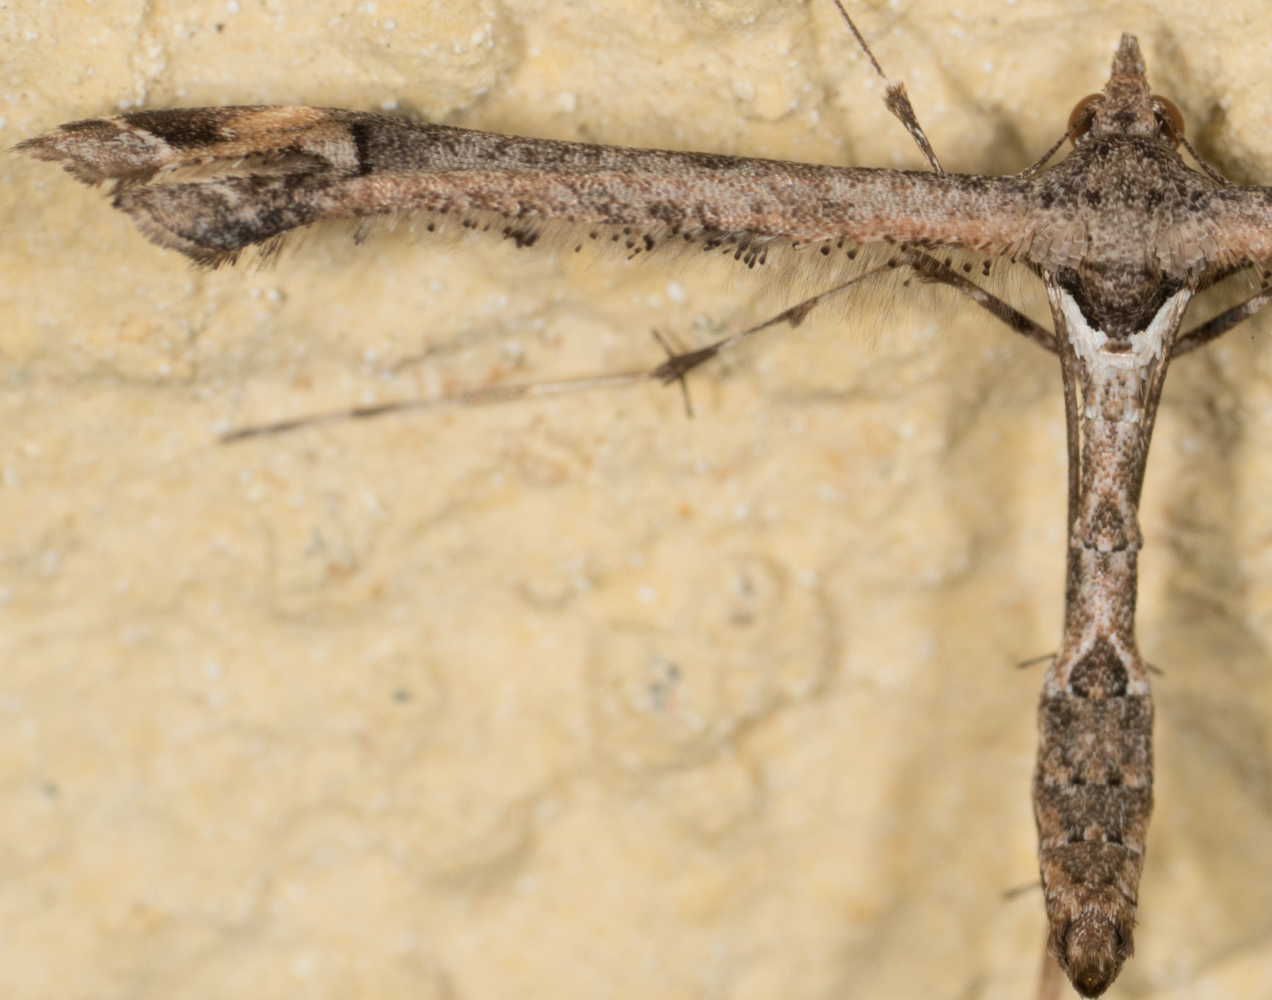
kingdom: Animalia
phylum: Arthropoda
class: Insecta
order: Lepidoptera
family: Pterophoridae
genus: Anstenoptilia
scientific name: Anstenoptilia marmarodactyla
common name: Moth
